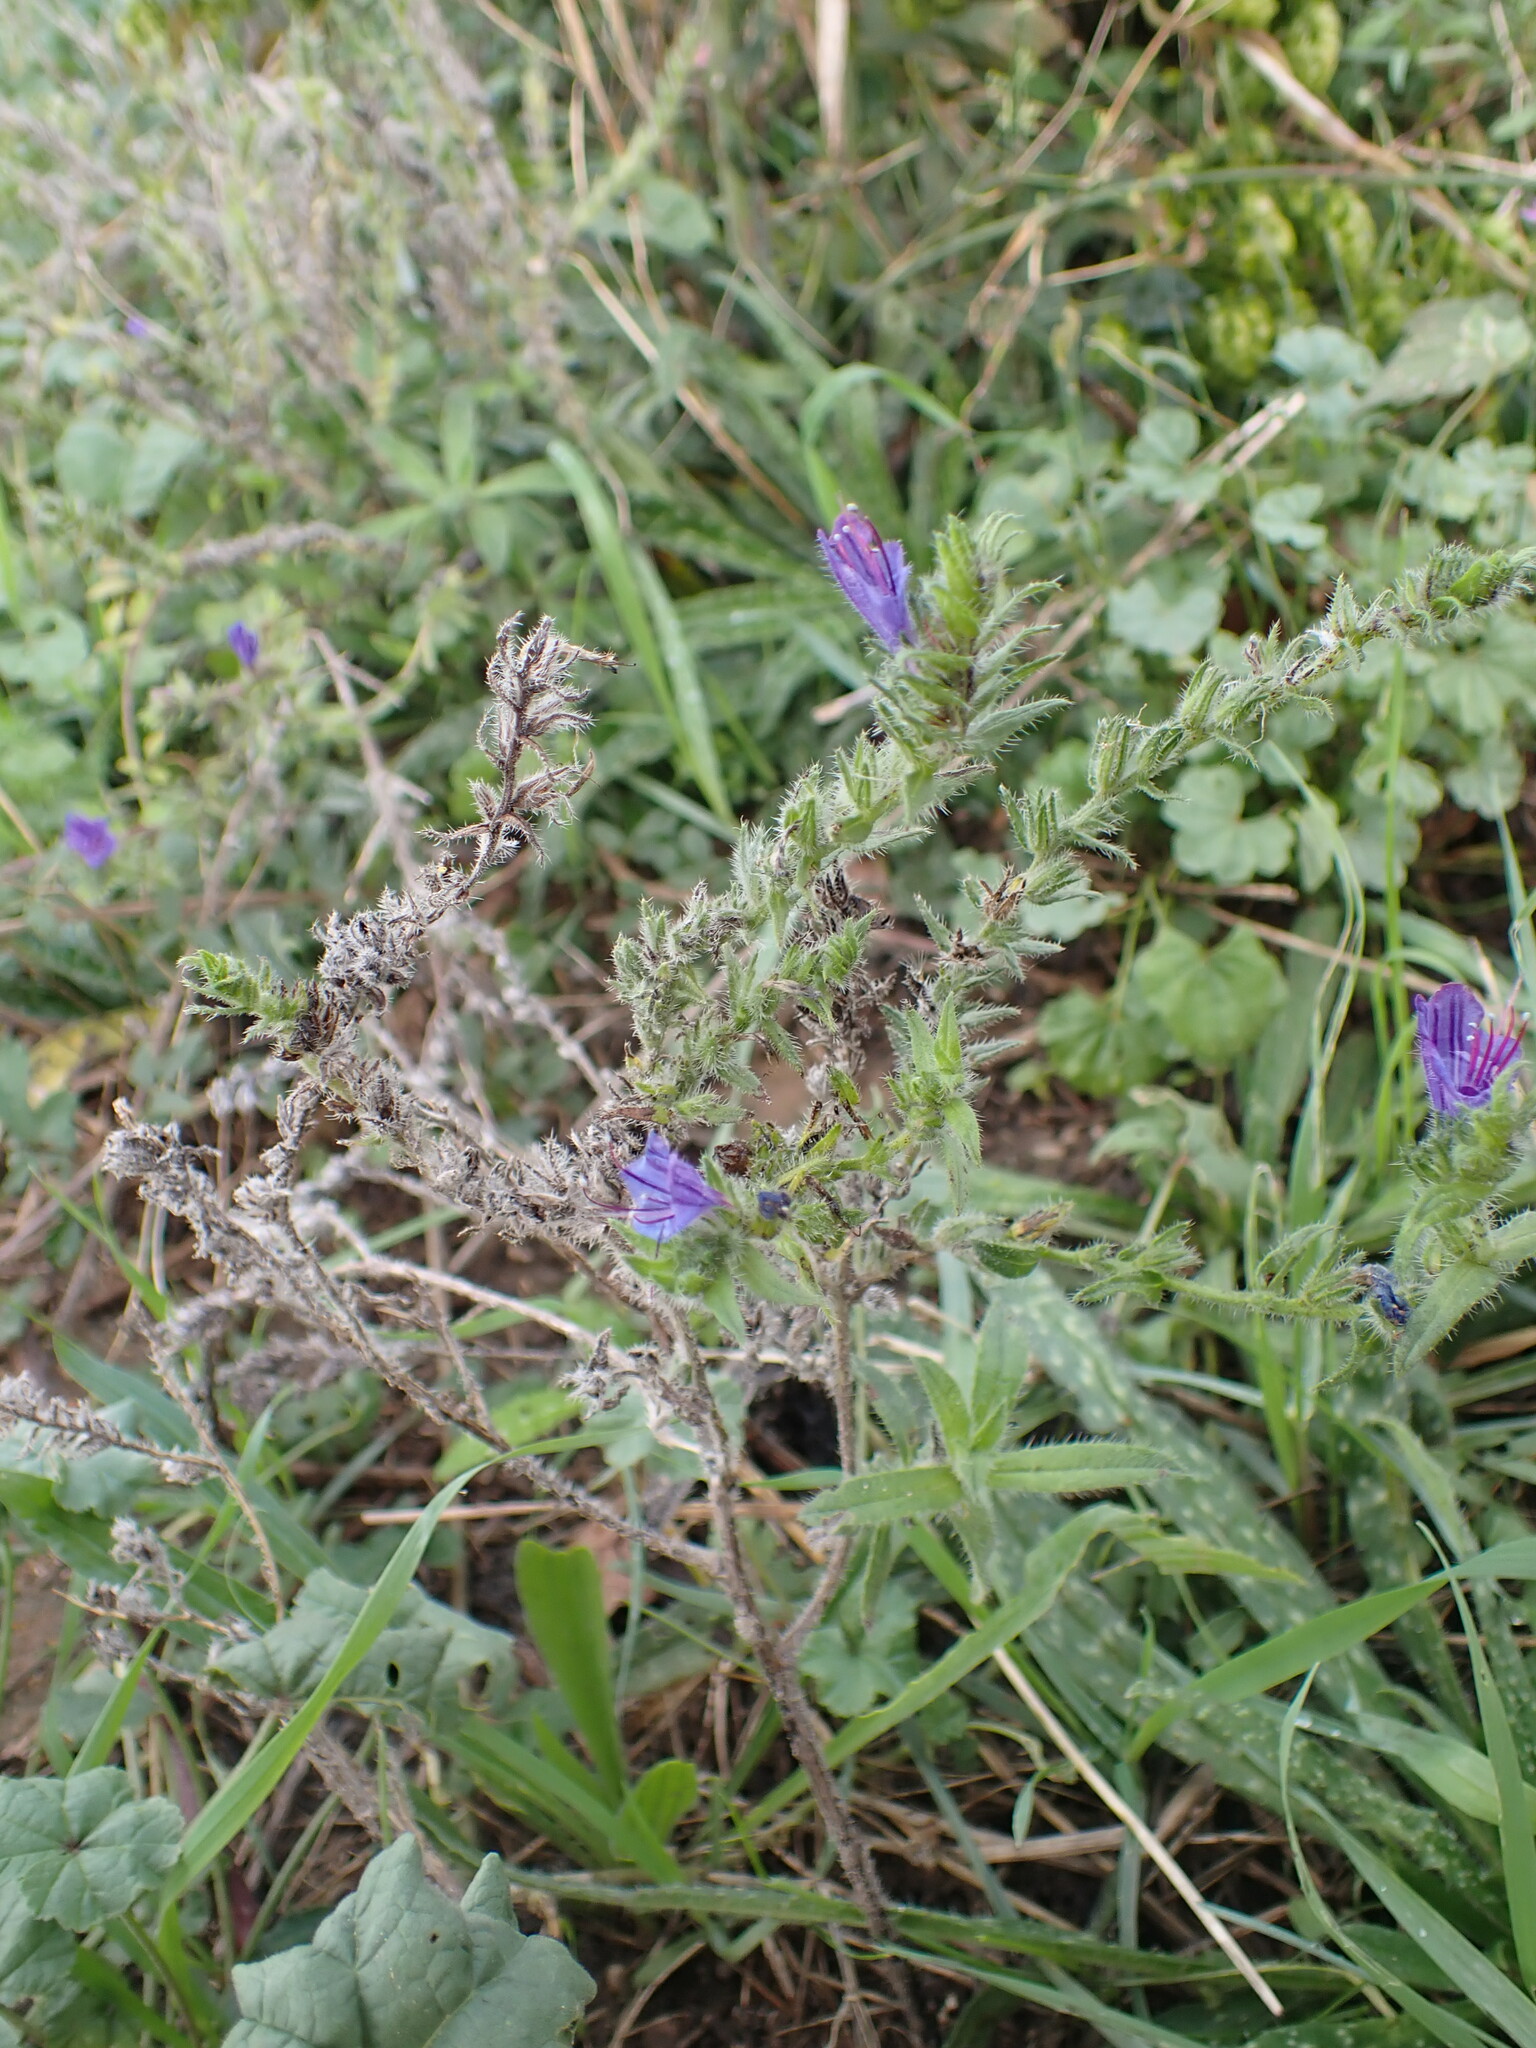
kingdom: Plantae
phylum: Tracheophyta
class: Magnoliopsida
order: Boraginales
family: Boraginaceae
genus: Echium
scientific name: Echium vulgare
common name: Common viper's bugloss
